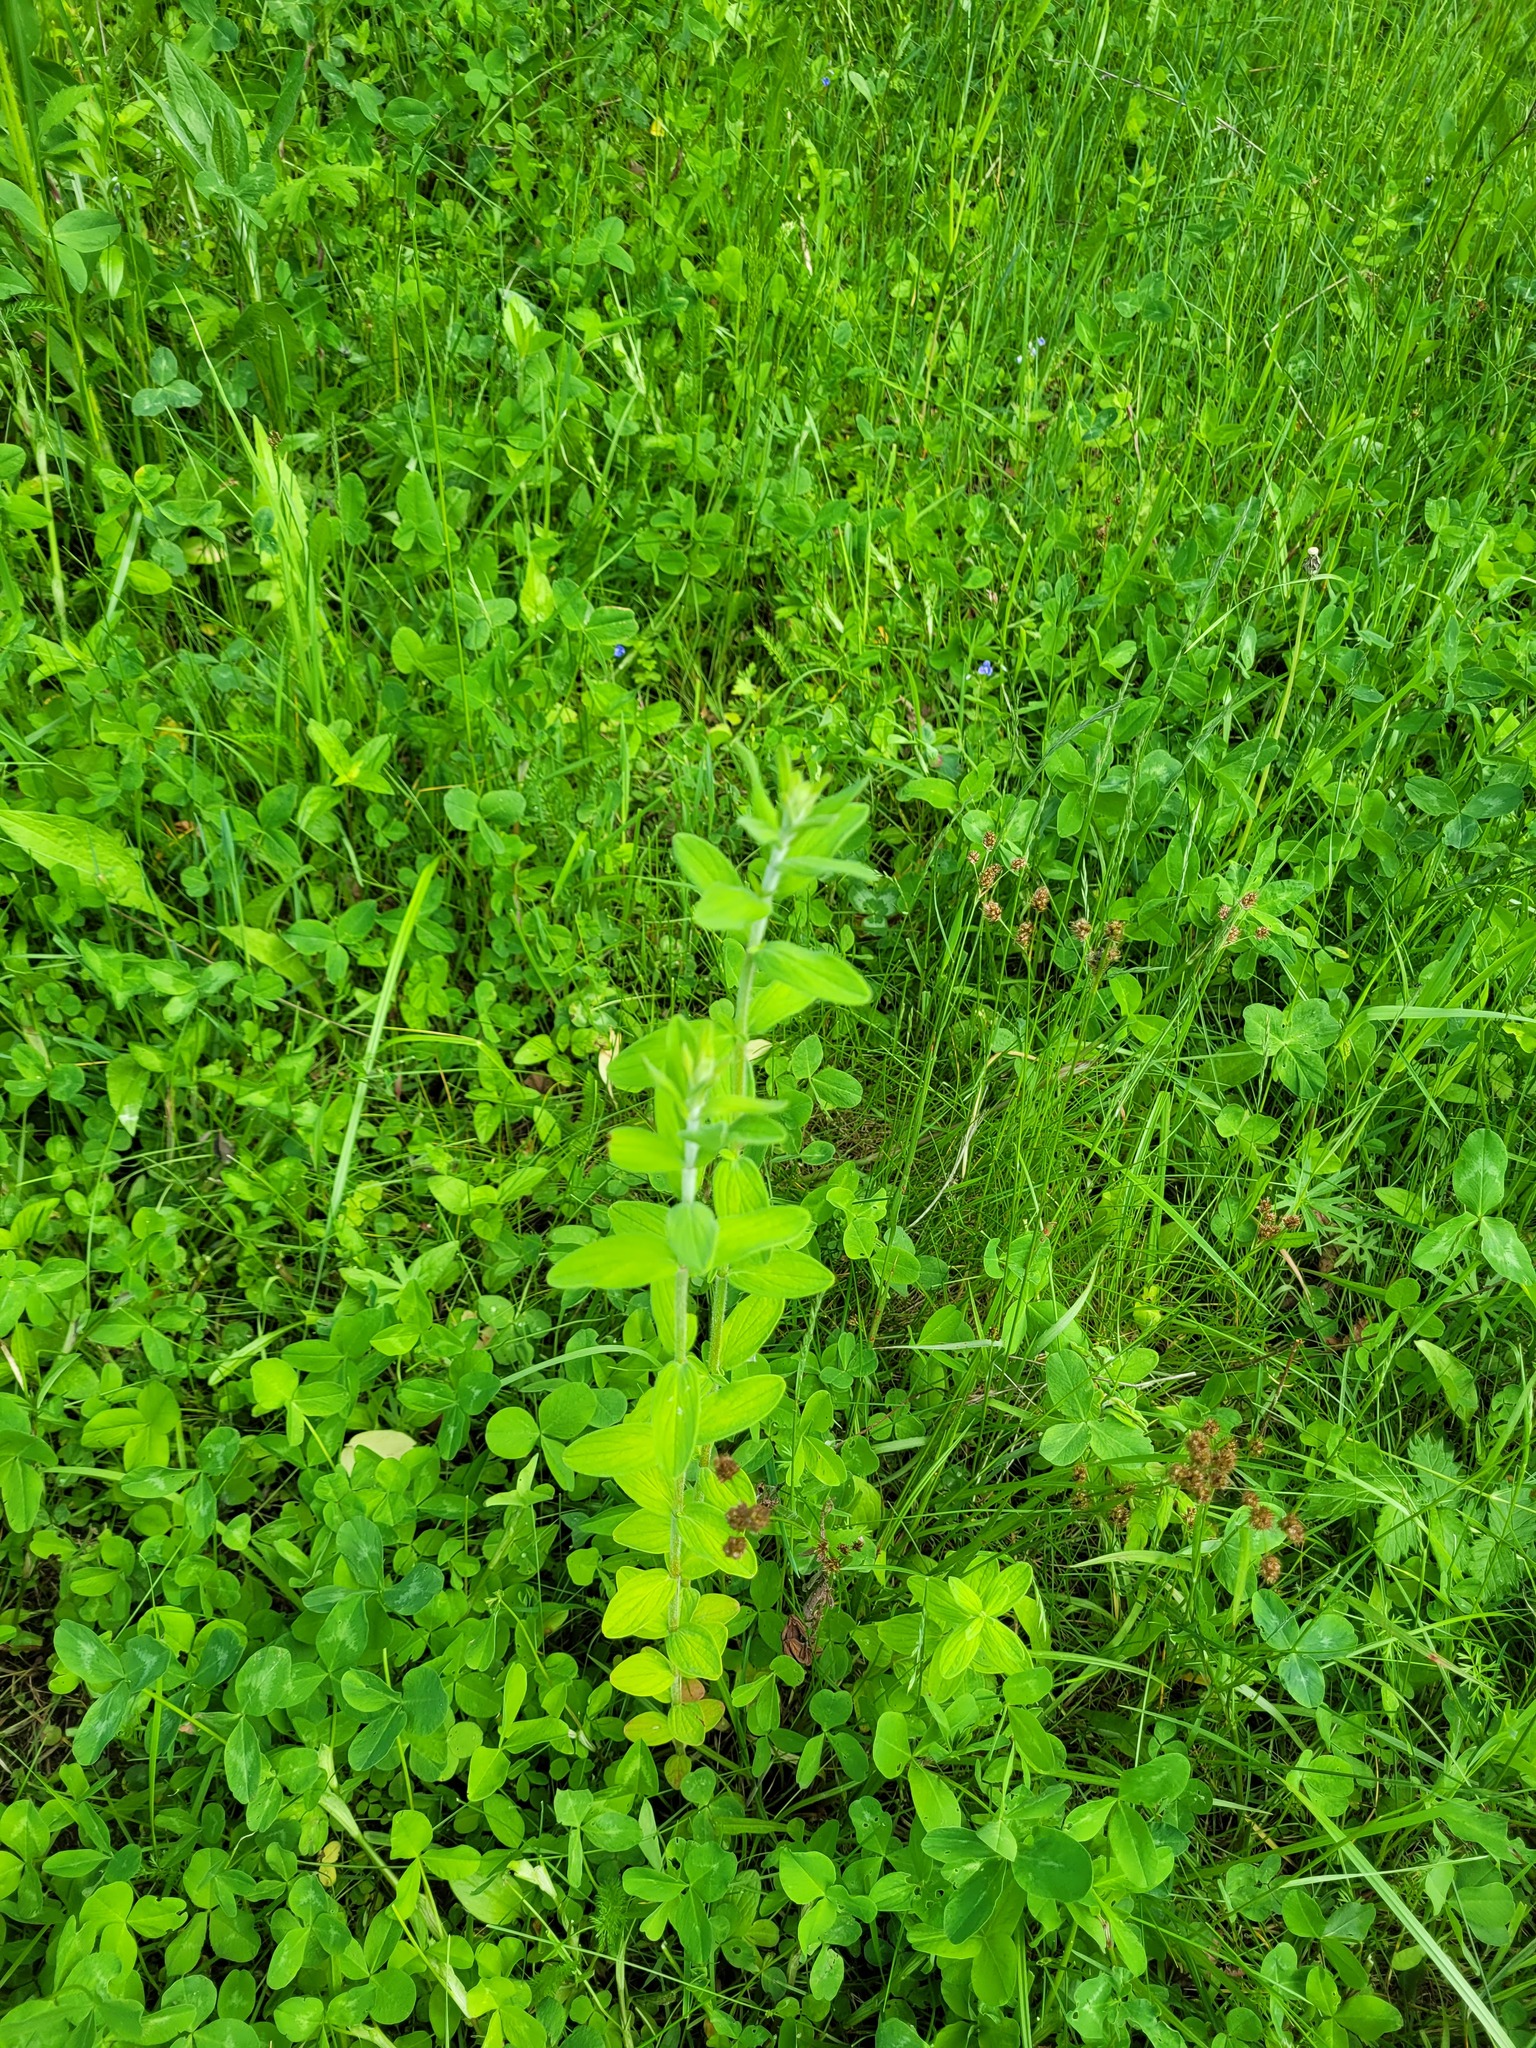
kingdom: Plantae
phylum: Tracheophyta
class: Magnoliopsida
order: Malpighiales
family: Hypericaceae
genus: Hypericum
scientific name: Hypericum hirsutum
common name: Hairy st. john's-wort
